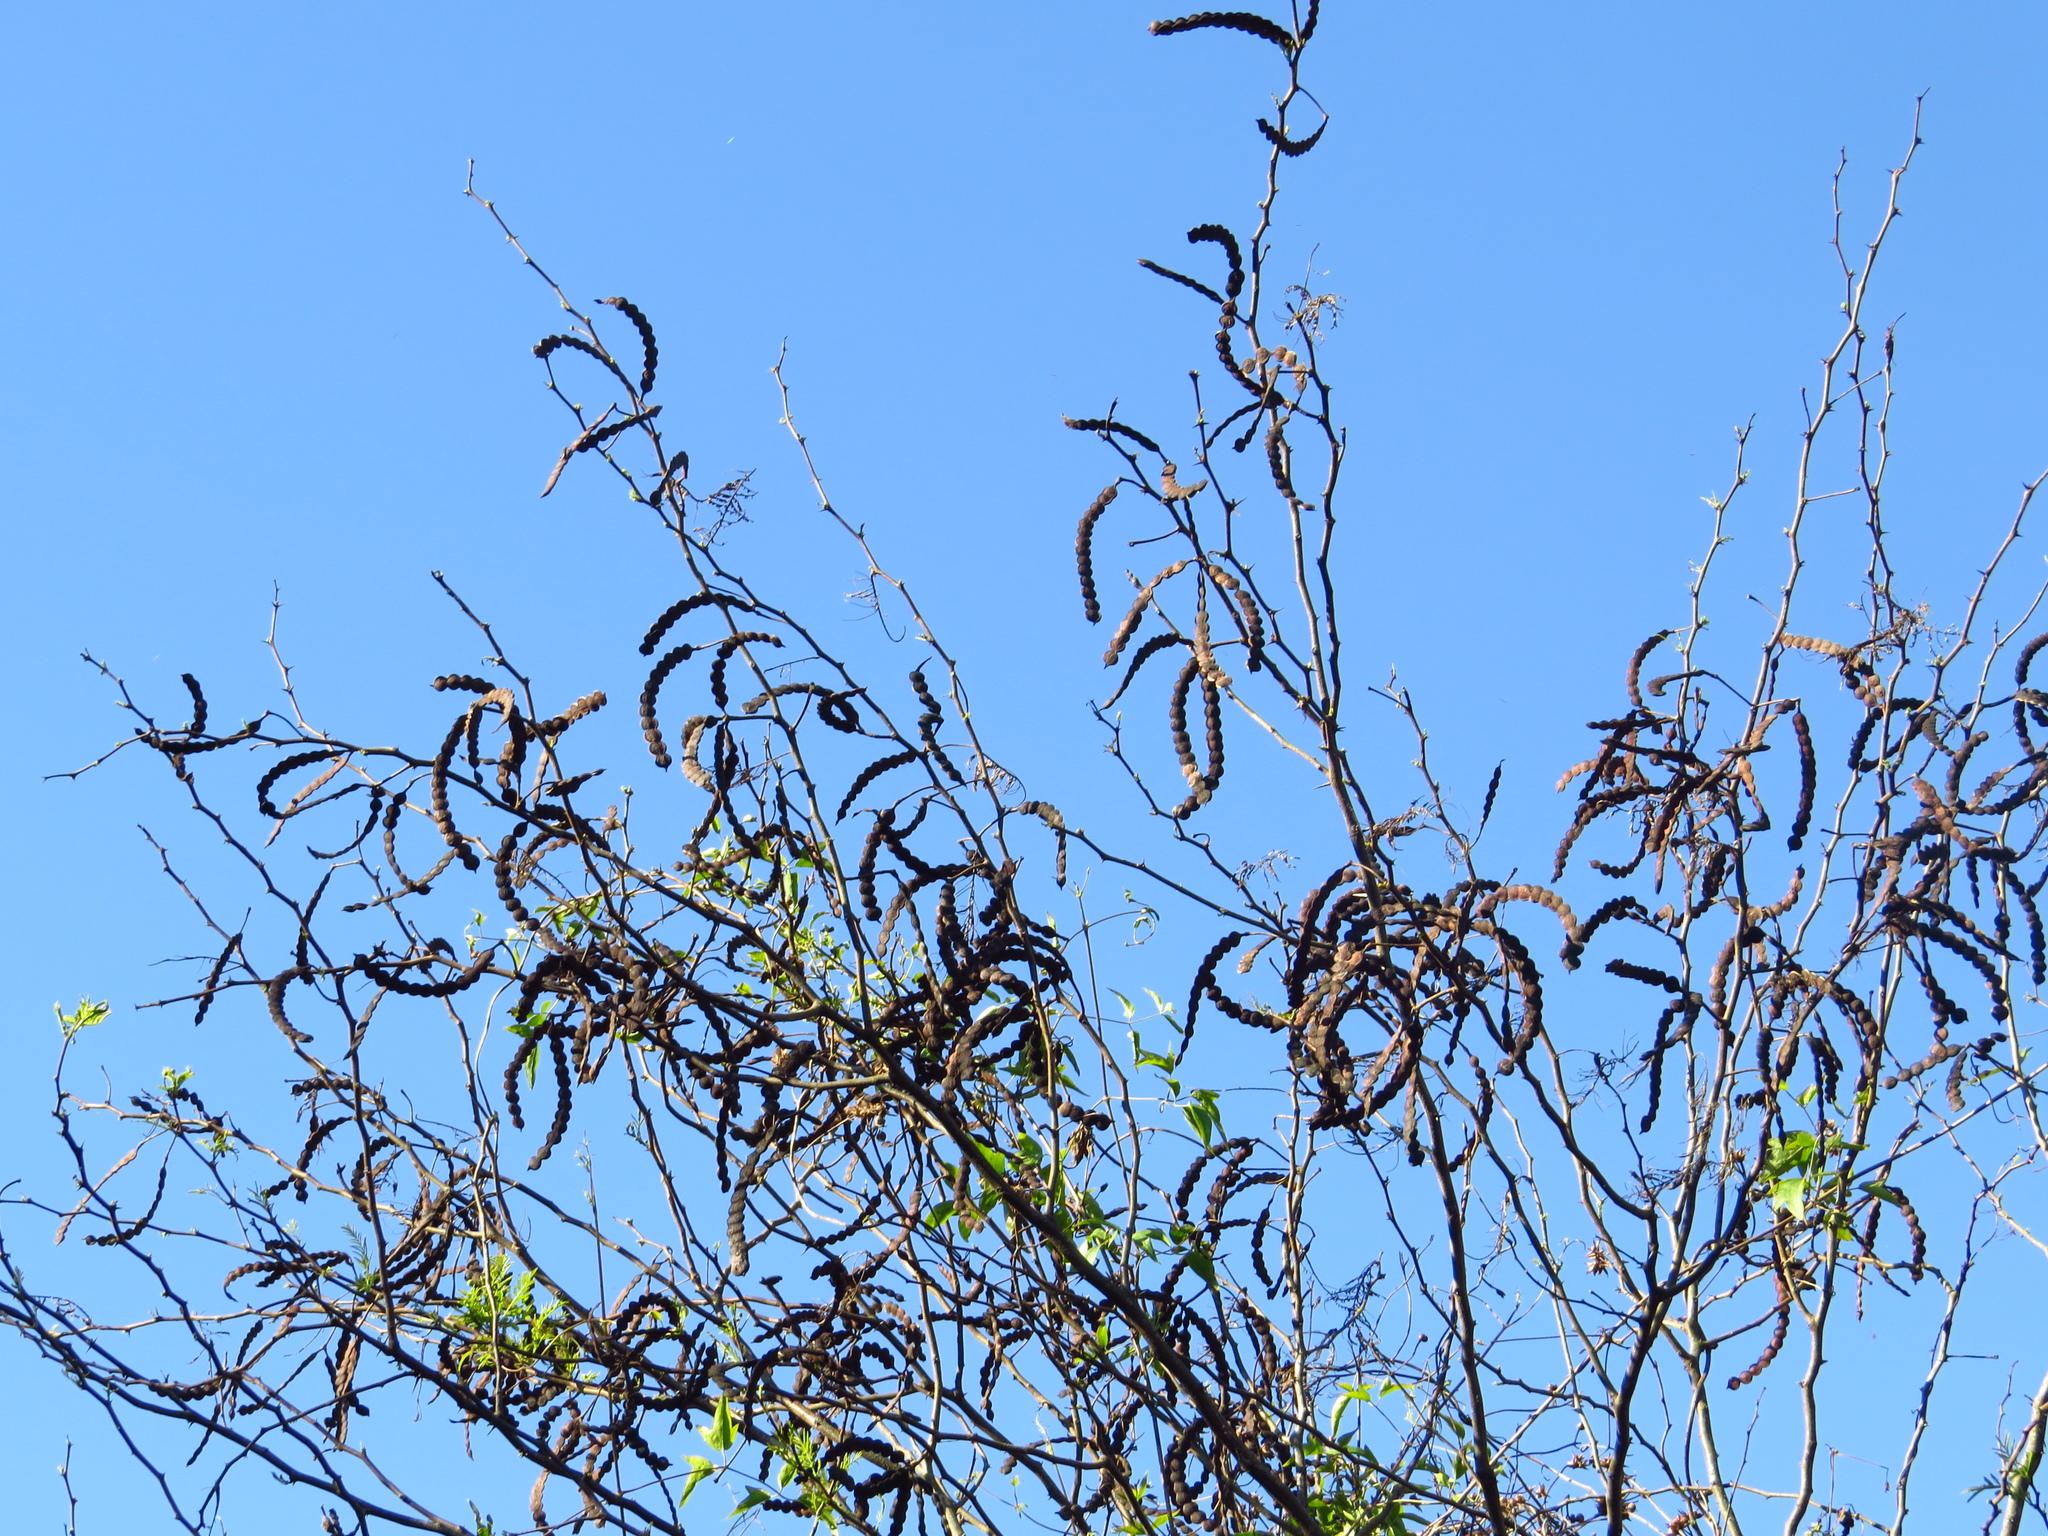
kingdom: Plantae
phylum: Tracheophyta
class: Magnoliopsida
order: Fabales
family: Fabaceae
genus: Vachellia
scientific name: Vachellia aroma
